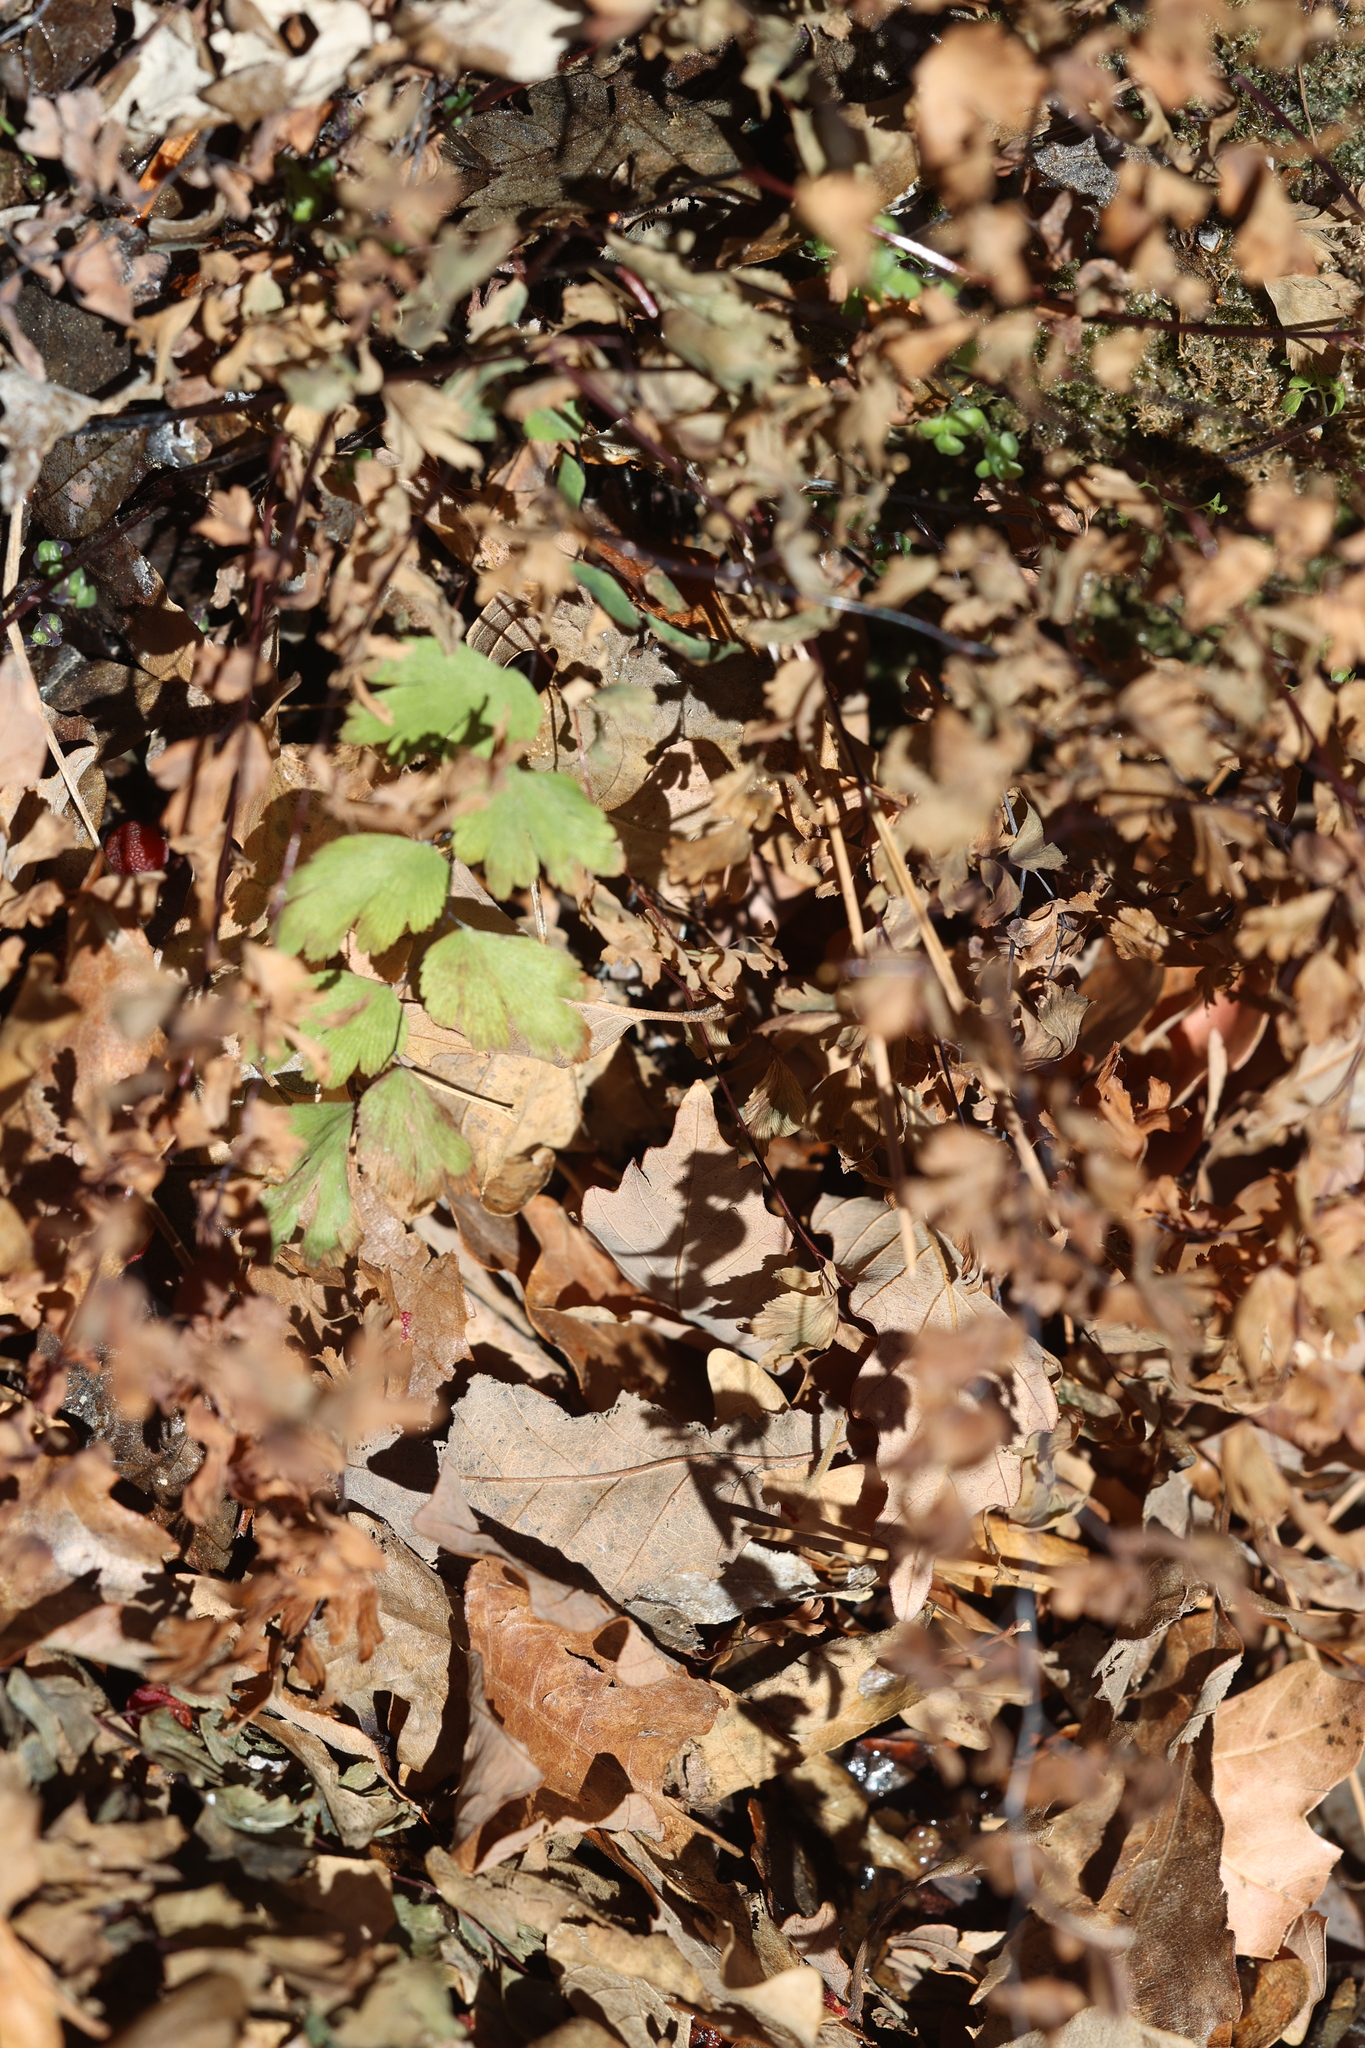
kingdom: Plantae
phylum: Tracheophyta
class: Polypodiopsida
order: Polypodiales
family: Pteridaceae
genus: Adiantum
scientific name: Adiantum capillus-veneris
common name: Maidenhair fern
